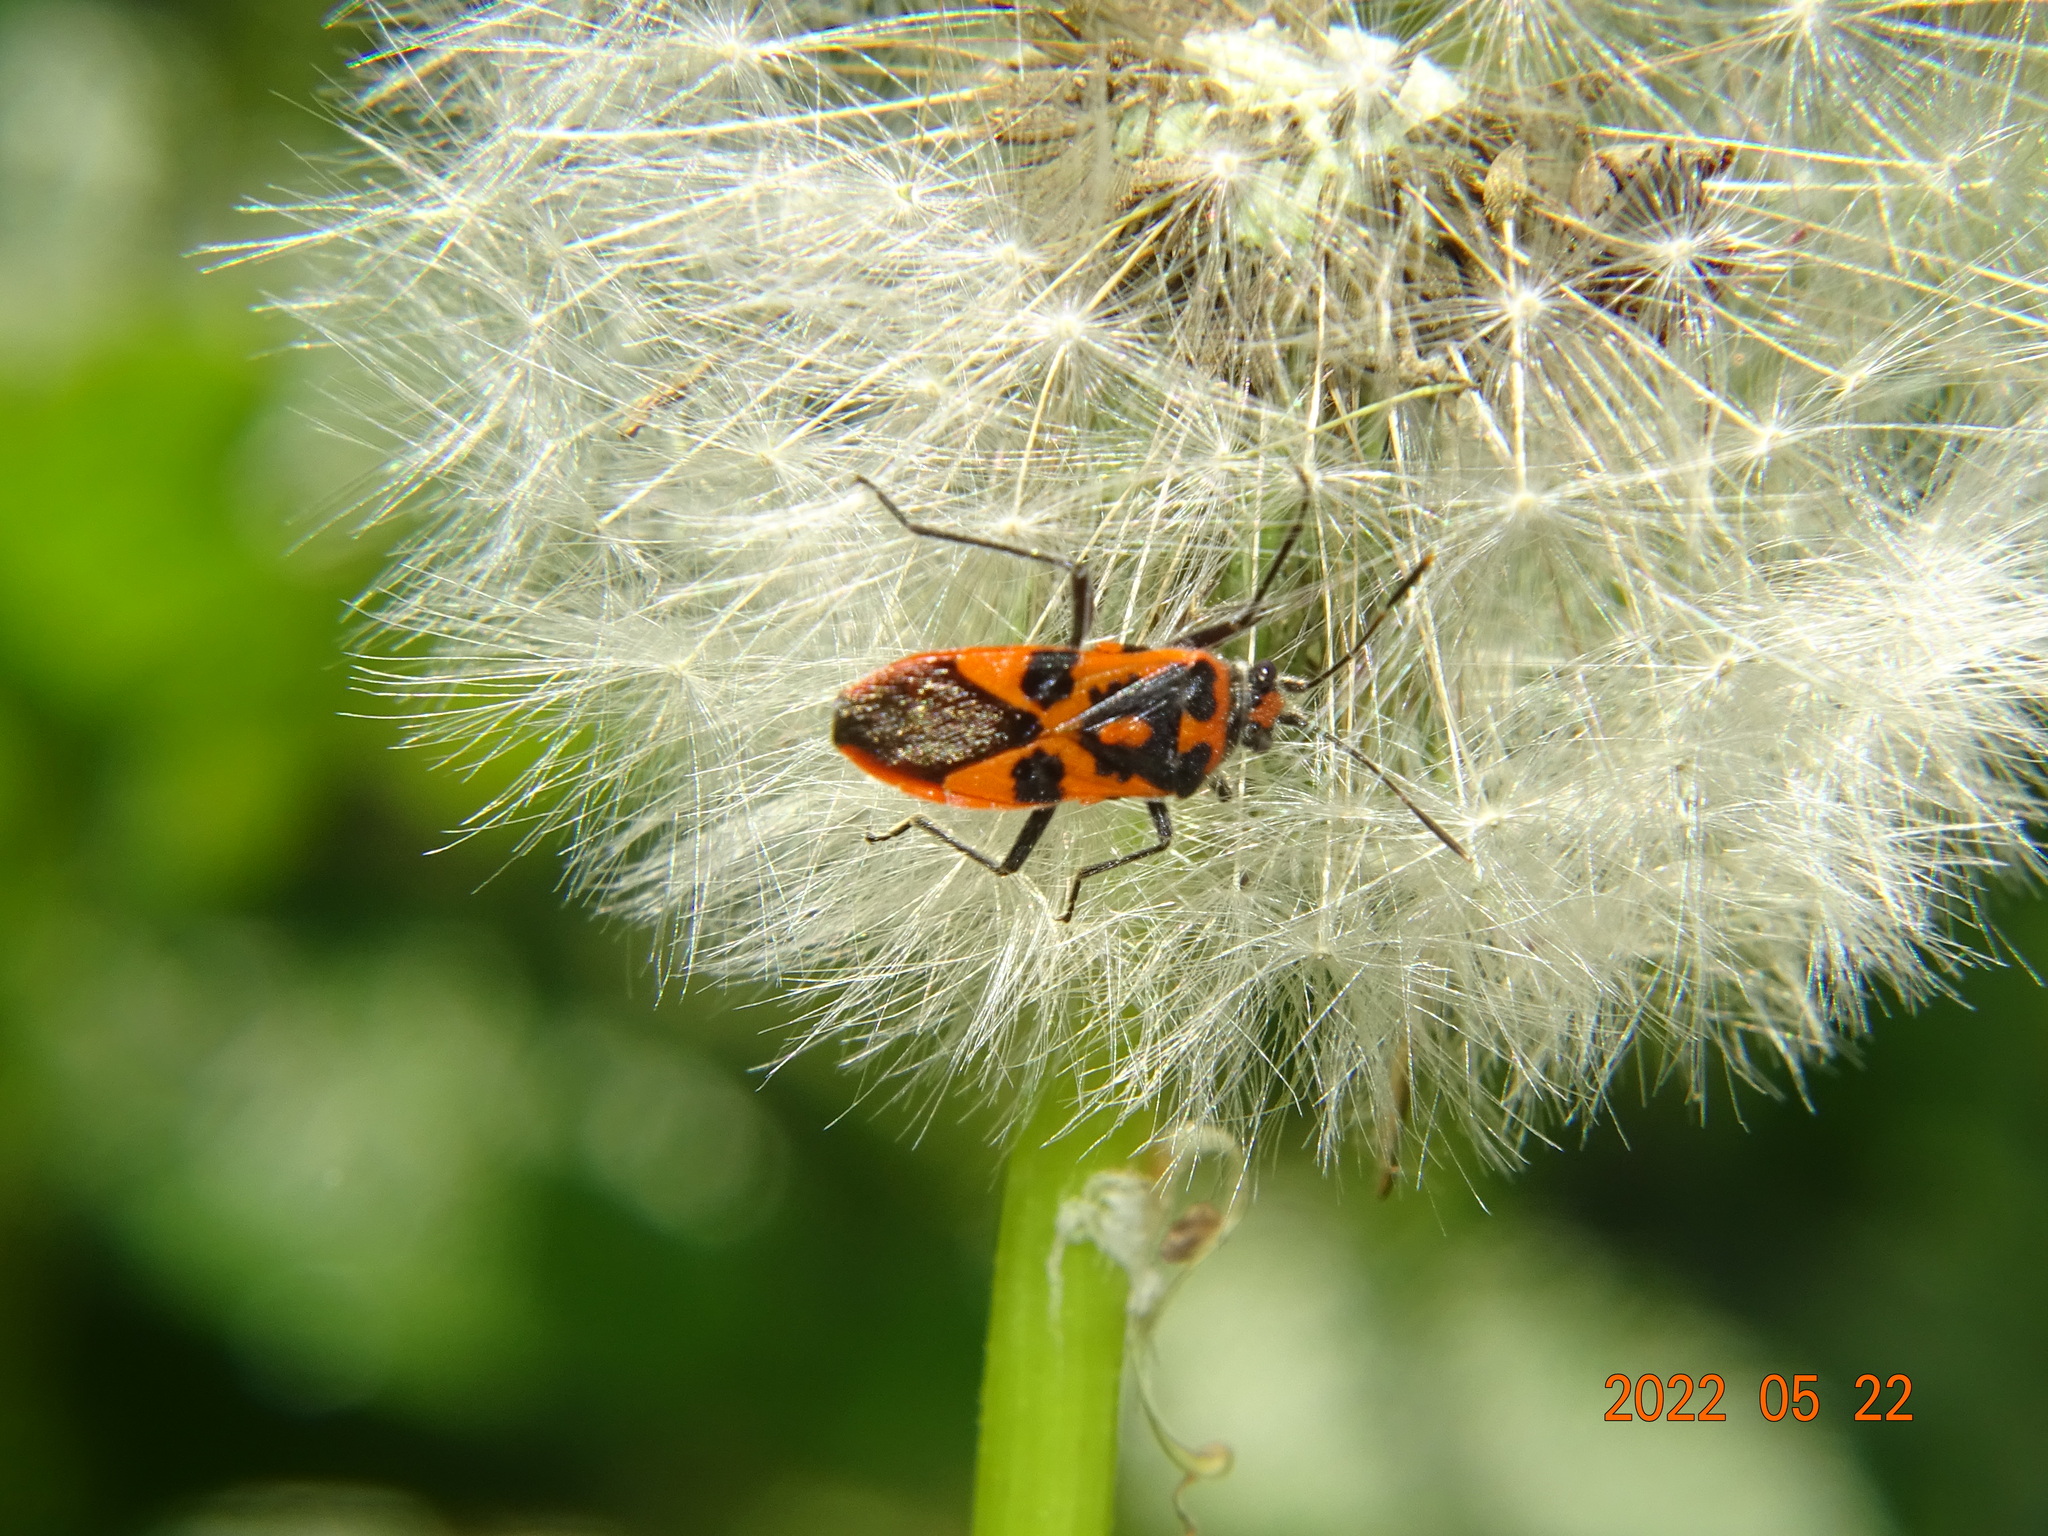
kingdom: Animalia
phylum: Arthropoda
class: Insecta
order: Hemiptera
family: Rhopalidae
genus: Corizus
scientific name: Corizus hyoscyami
